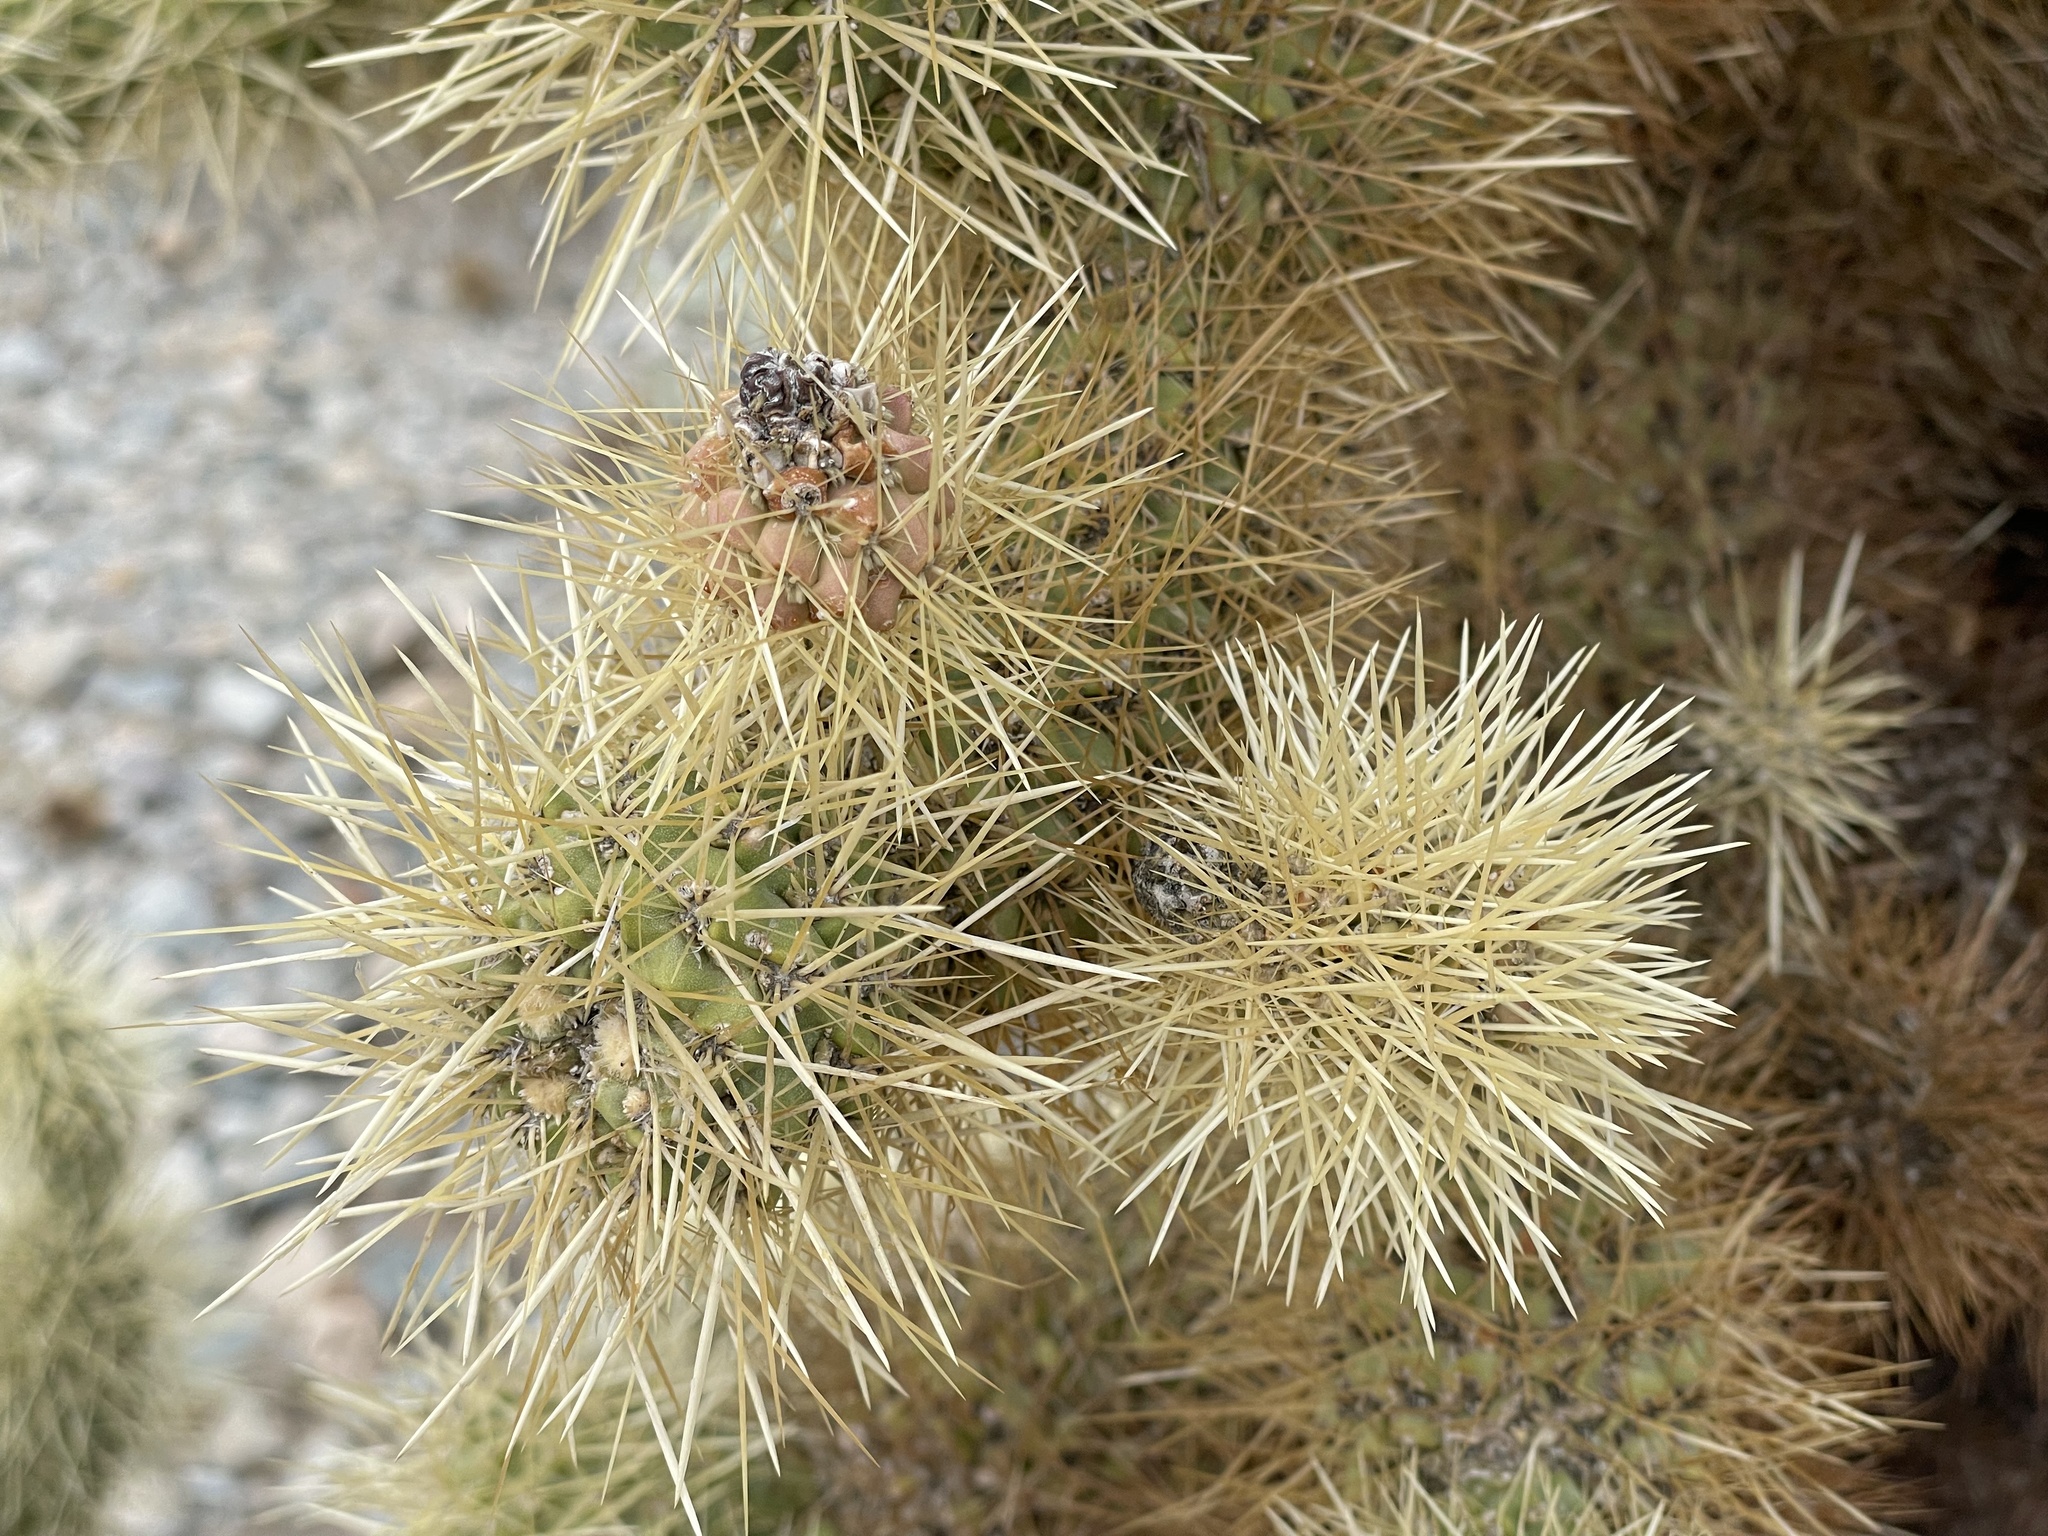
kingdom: Plantae
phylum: Tracheophyta
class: Magnoliopsida
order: Caryophyllales
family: Cactaceae
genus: Cylindropuntia
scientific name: Cylindropuntia fosbergii
